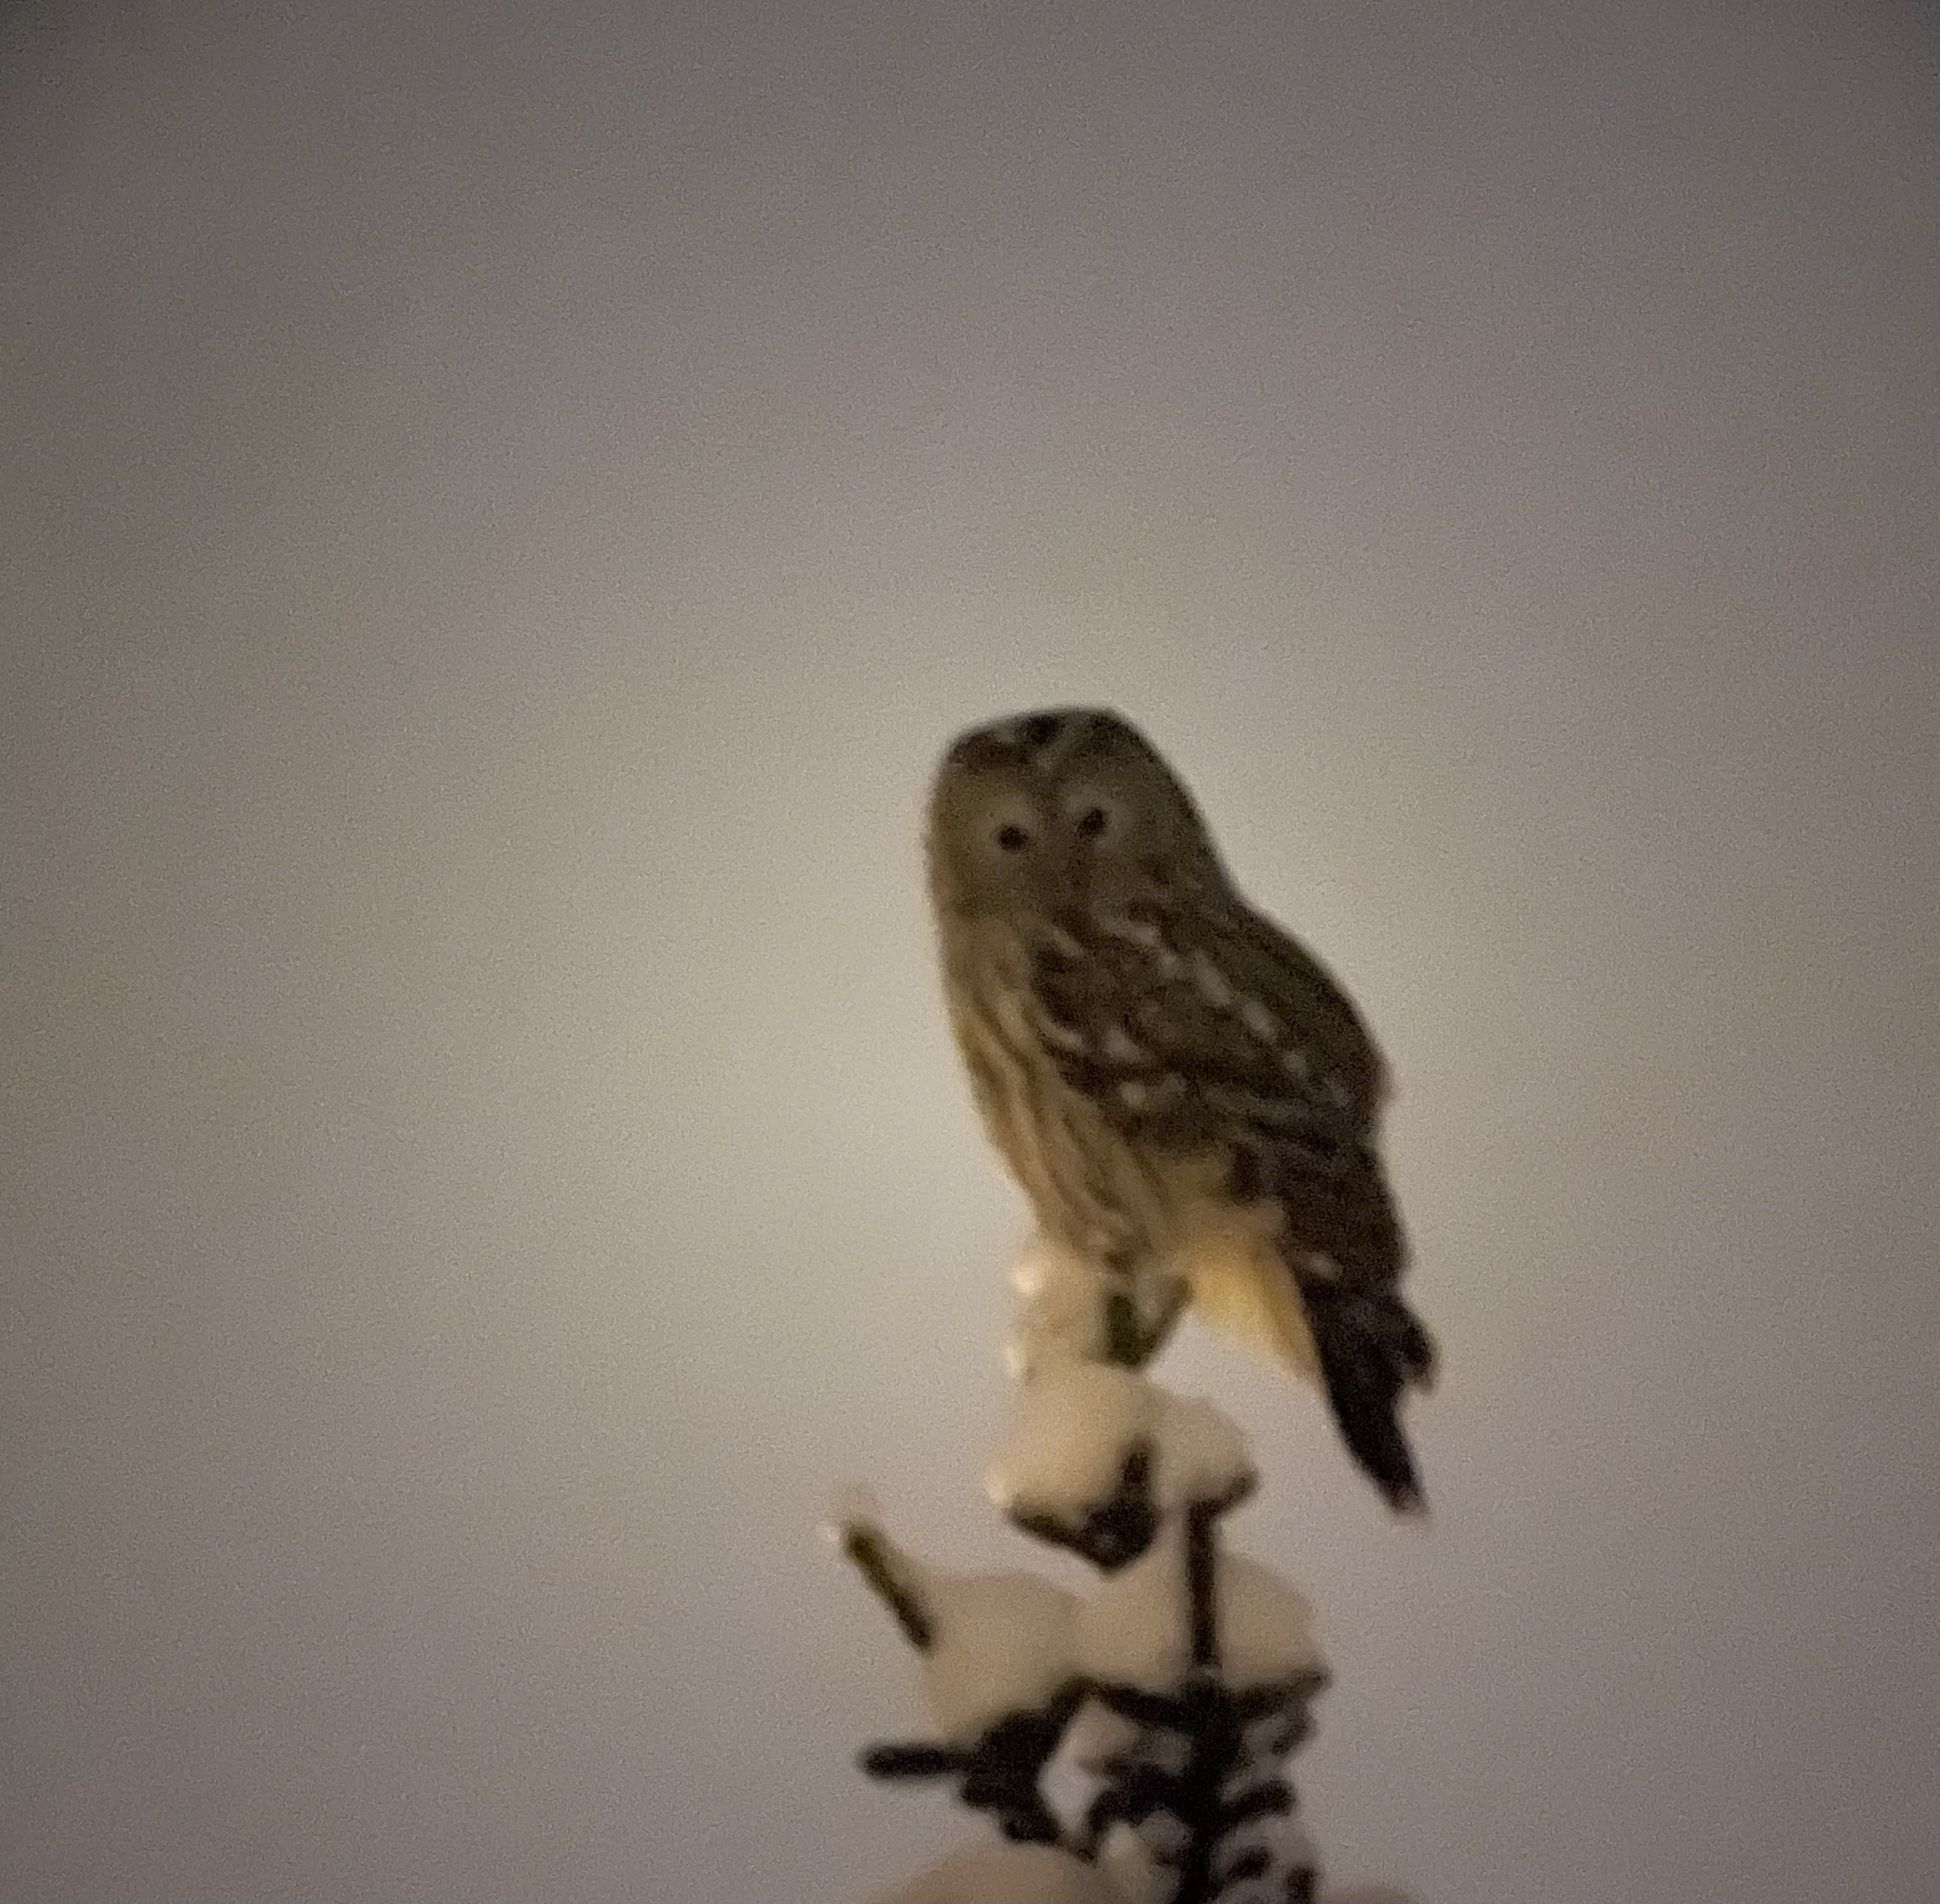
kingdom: Animalia
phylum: Chordata
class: Aves
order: Strigiformes
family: Strigidae
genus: Strix
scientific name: Strix uralensis
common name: Ural owl
